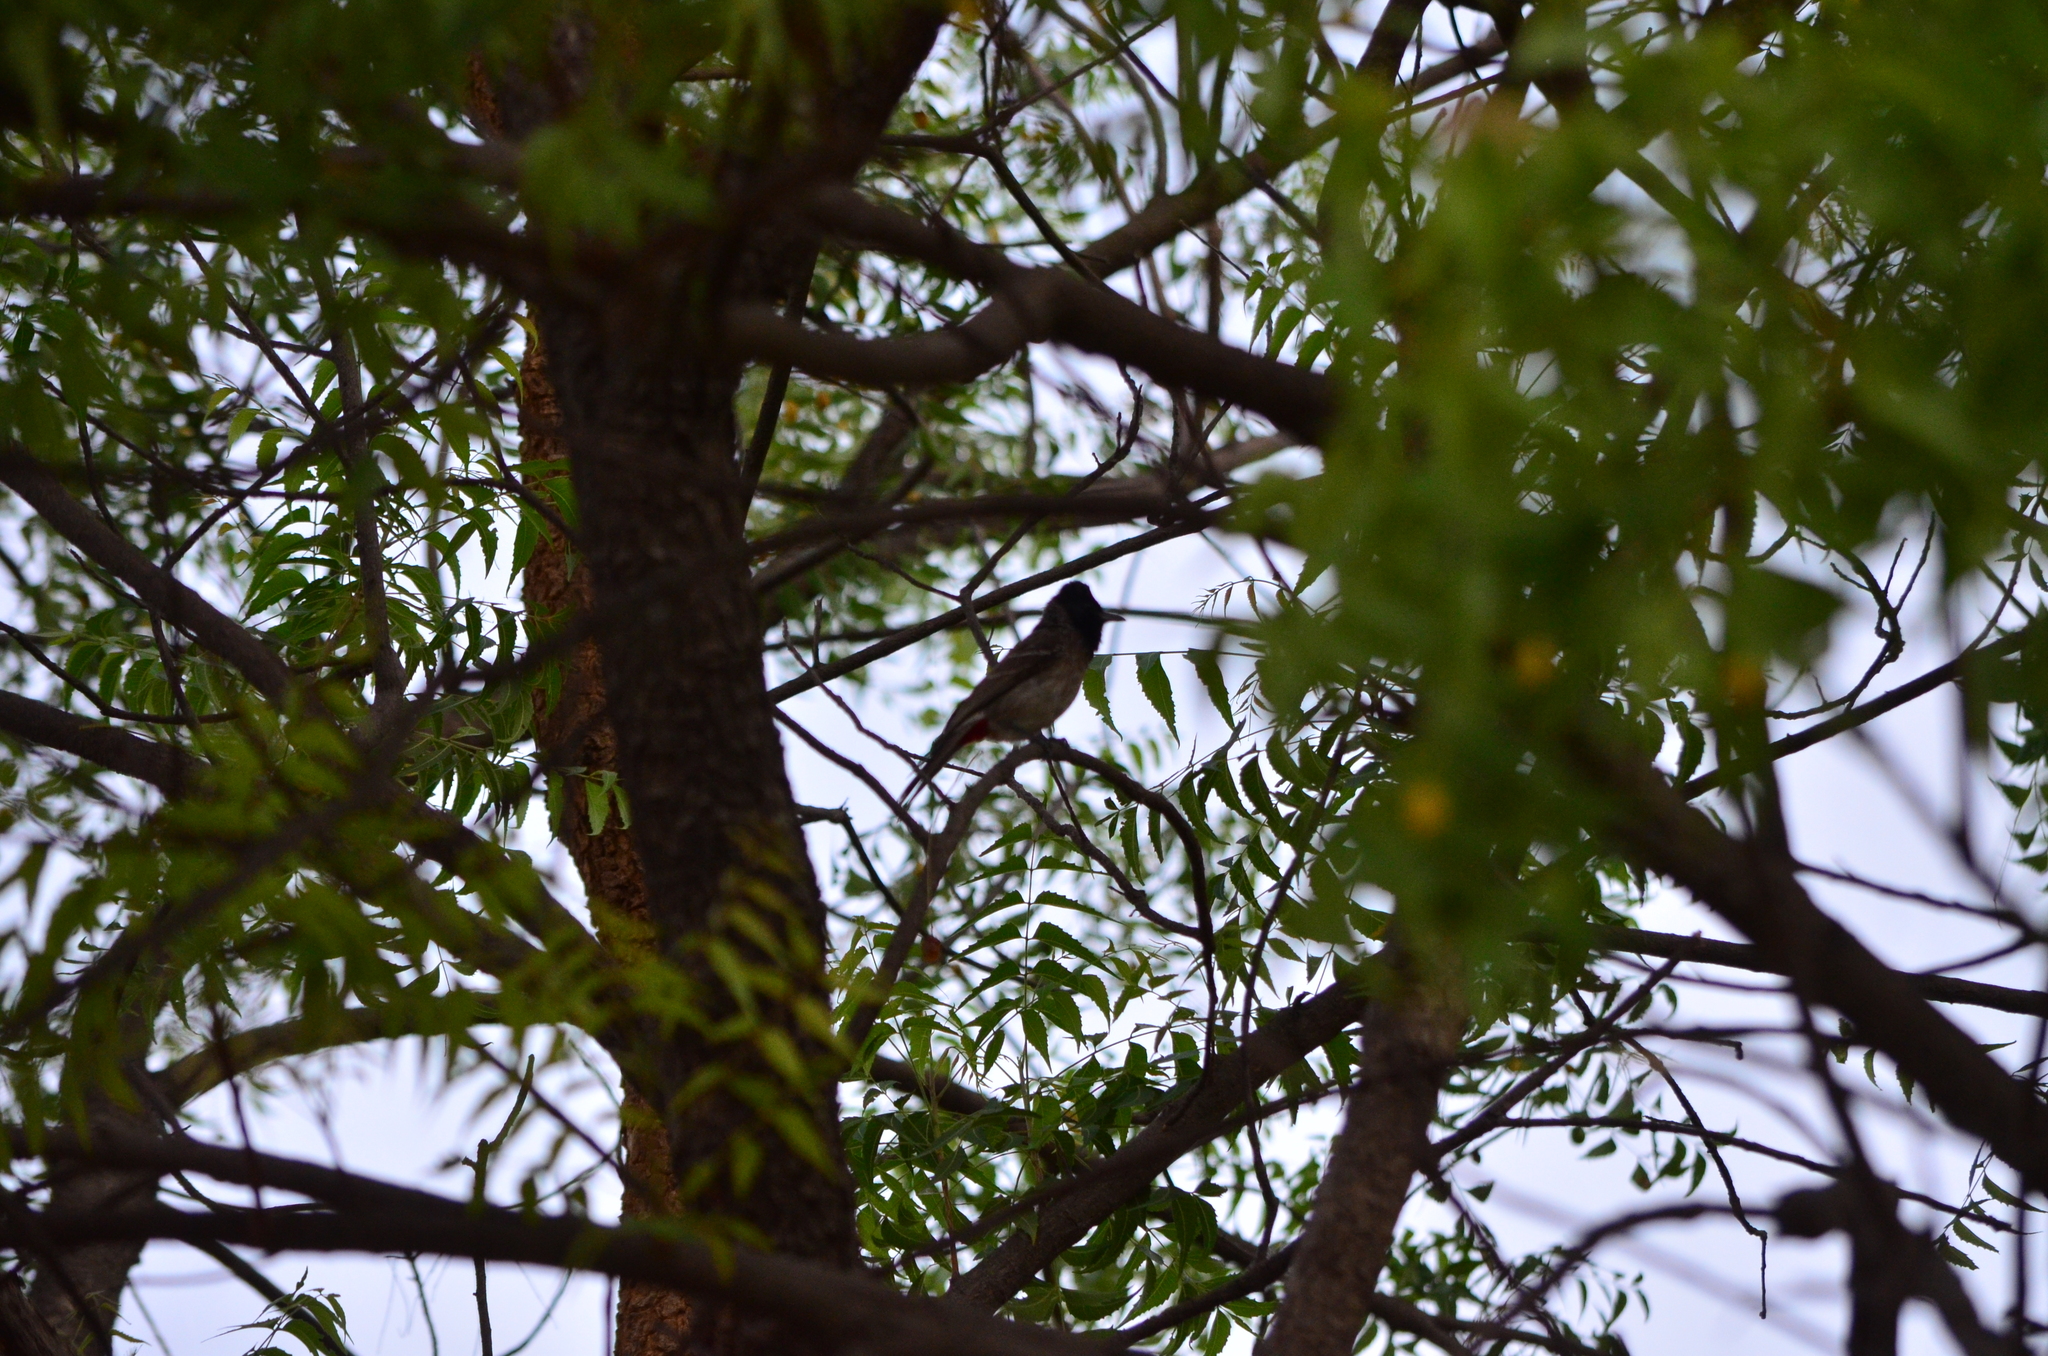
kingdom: Animalia
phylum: Chordata
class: Aves
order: Passeriformes
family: Pycnonotidae
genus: Pycnonotus
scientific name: Pycnonotus cafer
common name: Red-vented bulbul
